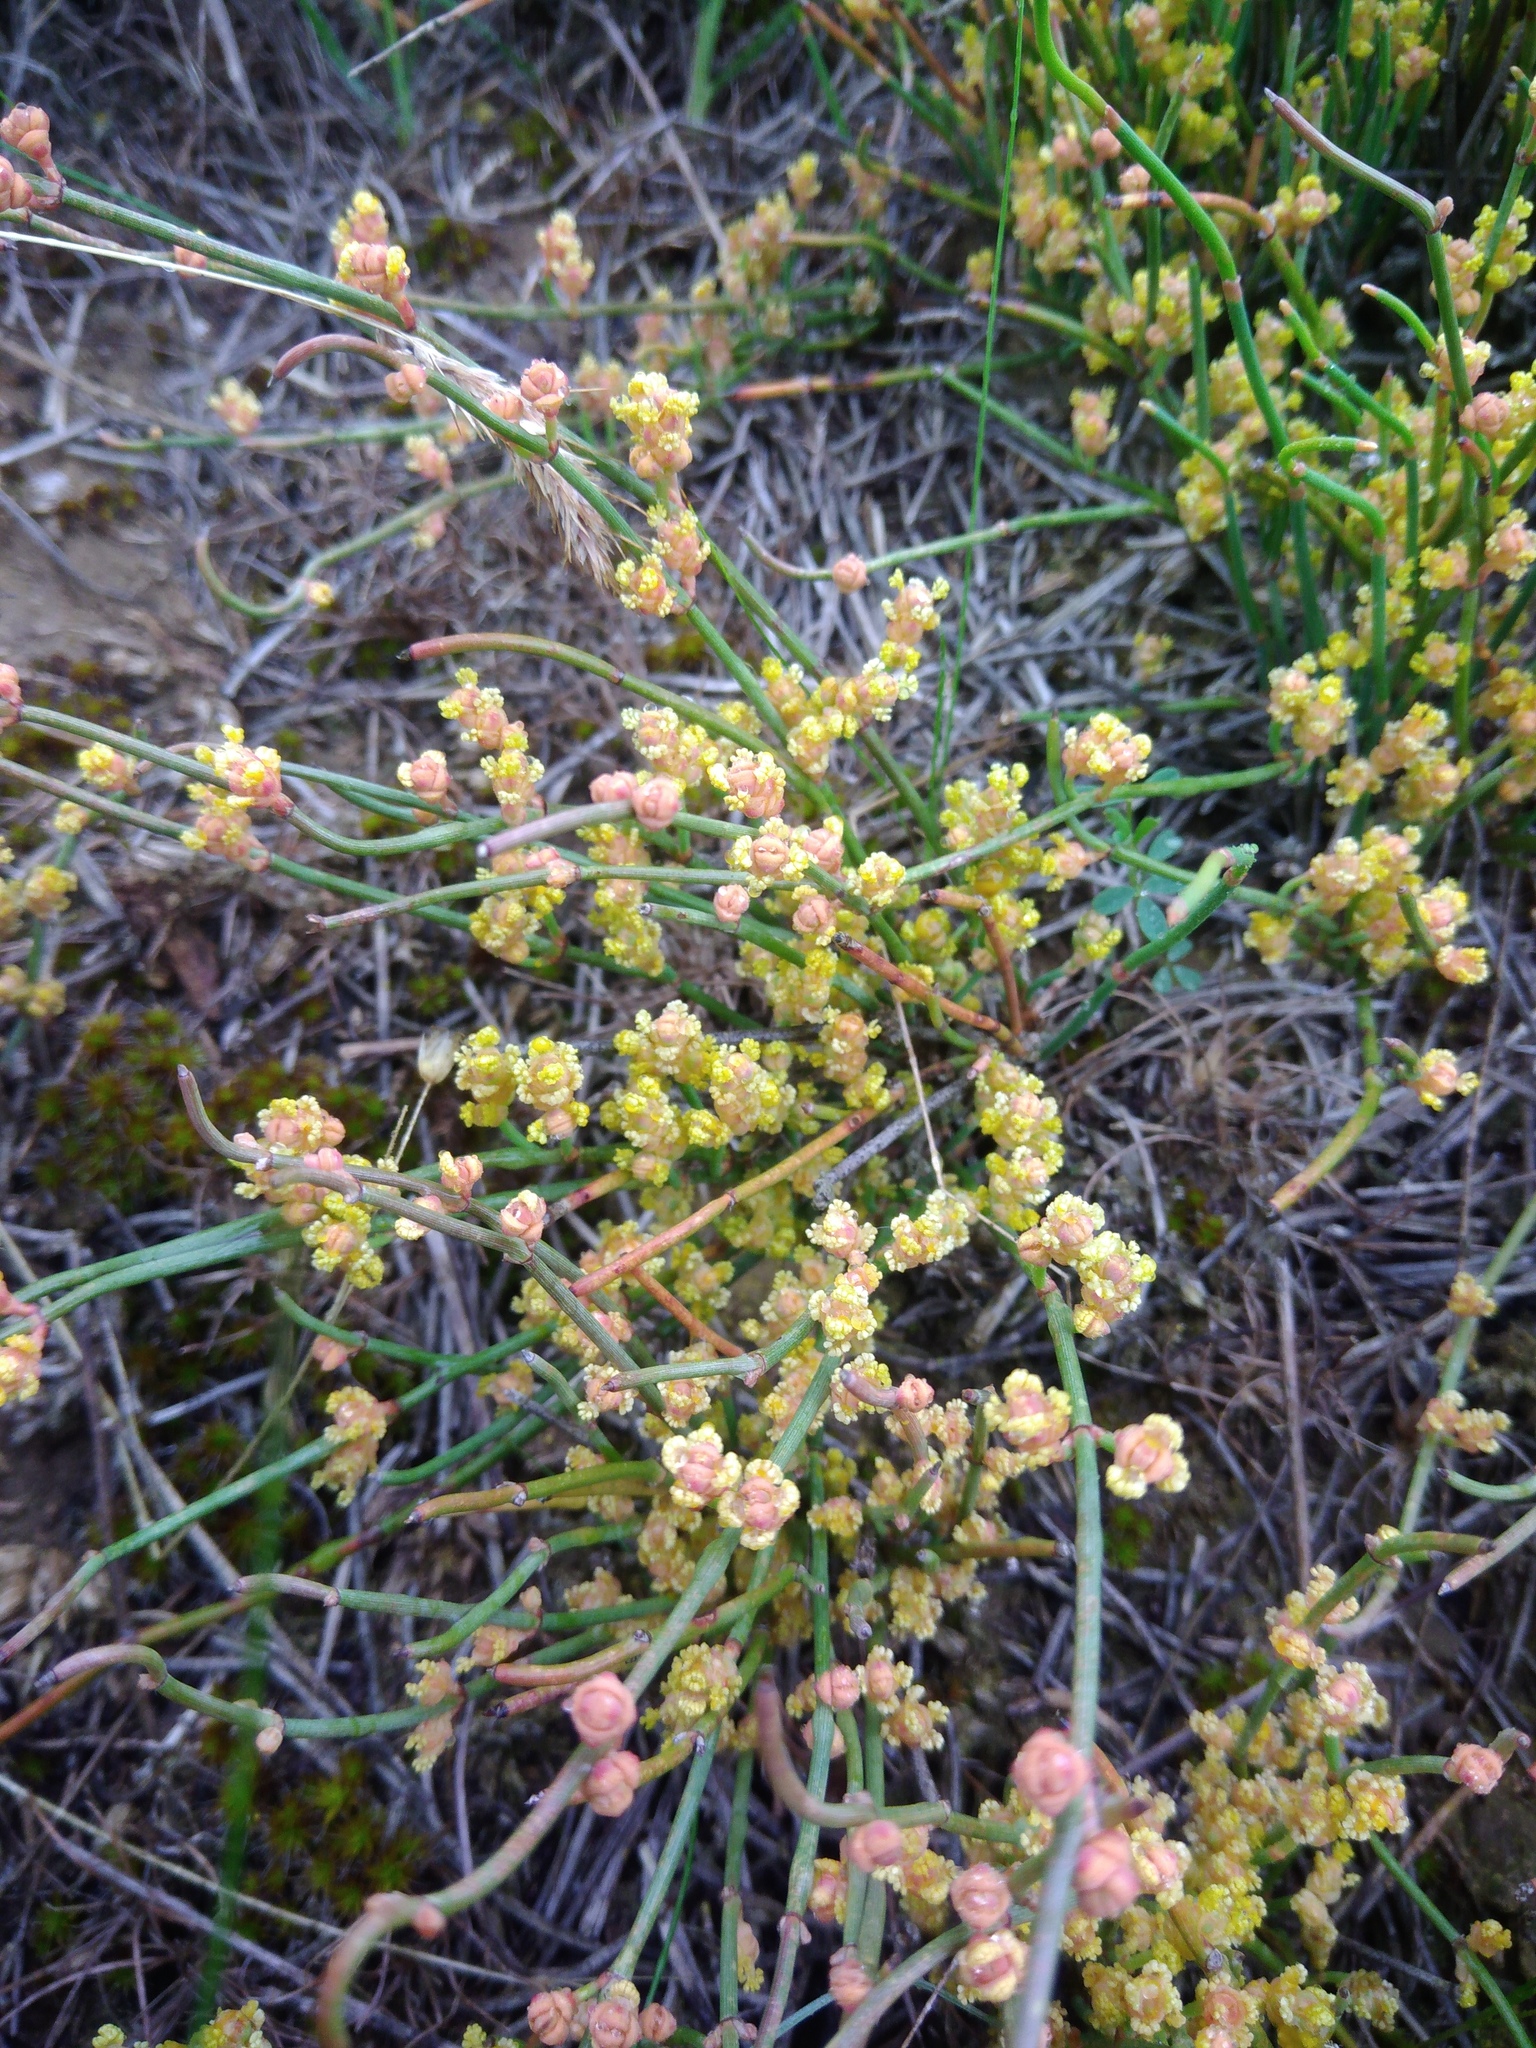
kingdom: Plantae
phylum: Tracheophyta
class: Gnetopsida
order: Ephedrales
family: Ephedraceae
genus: Ephedra
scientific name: Ephedra distachya
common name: Sea grape
